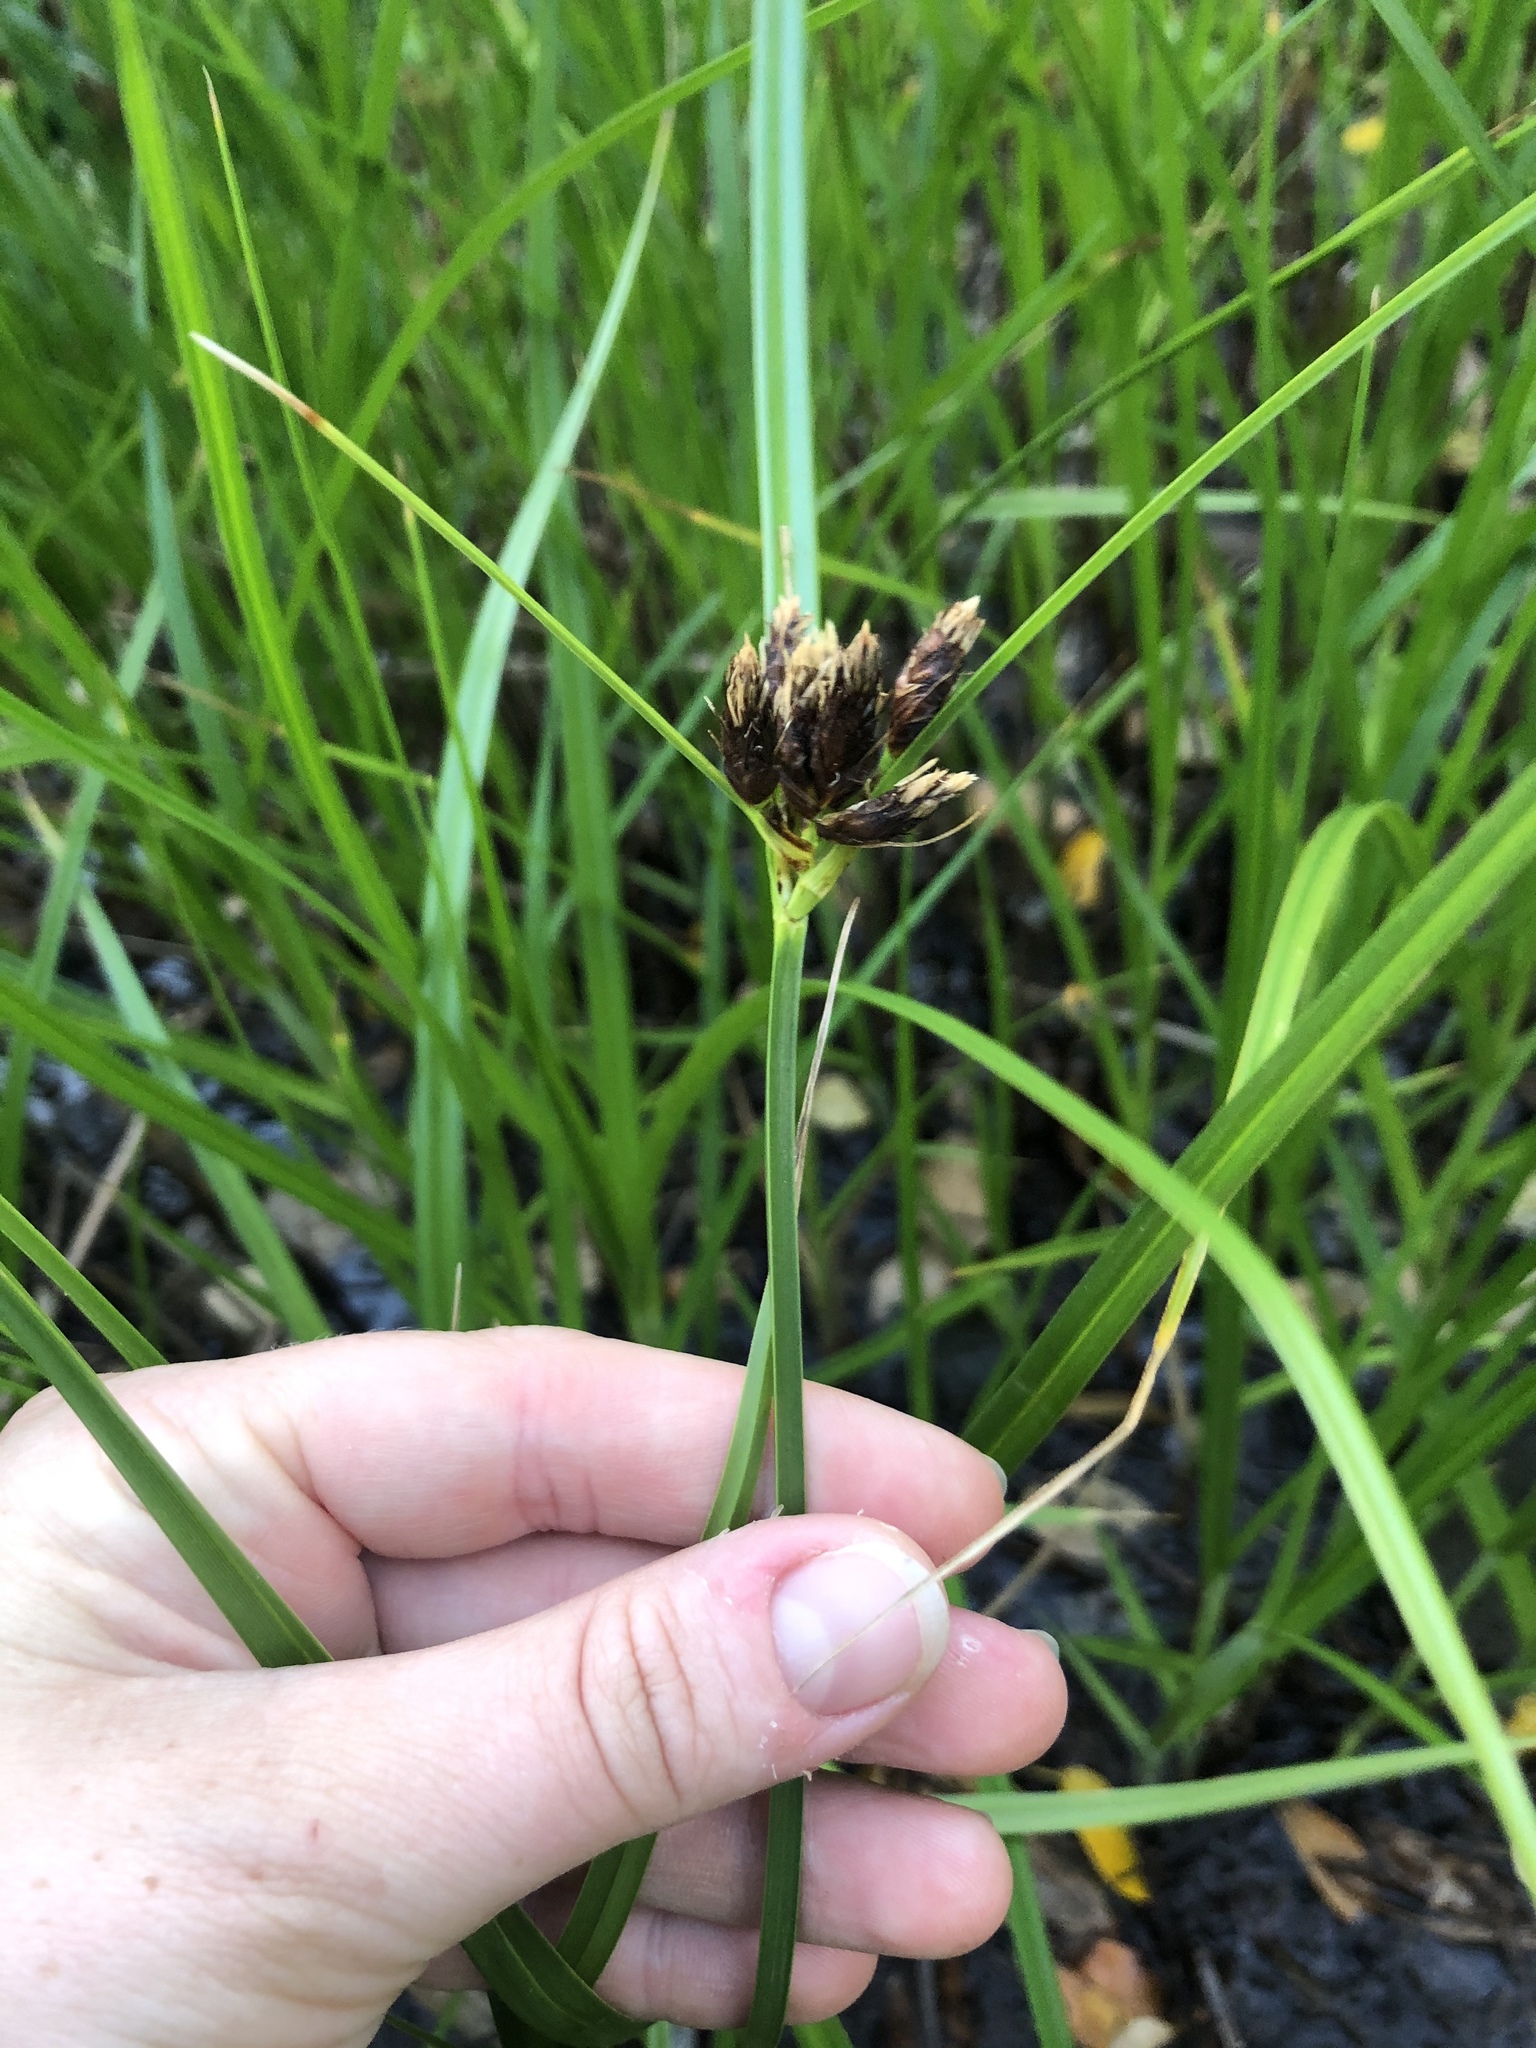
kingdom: Plantae
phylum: Tracheophyta
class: Liliopsida
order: Poales
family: Cyperaceae
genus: Bolboschoenus
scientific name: Bolboschoenus medianus
